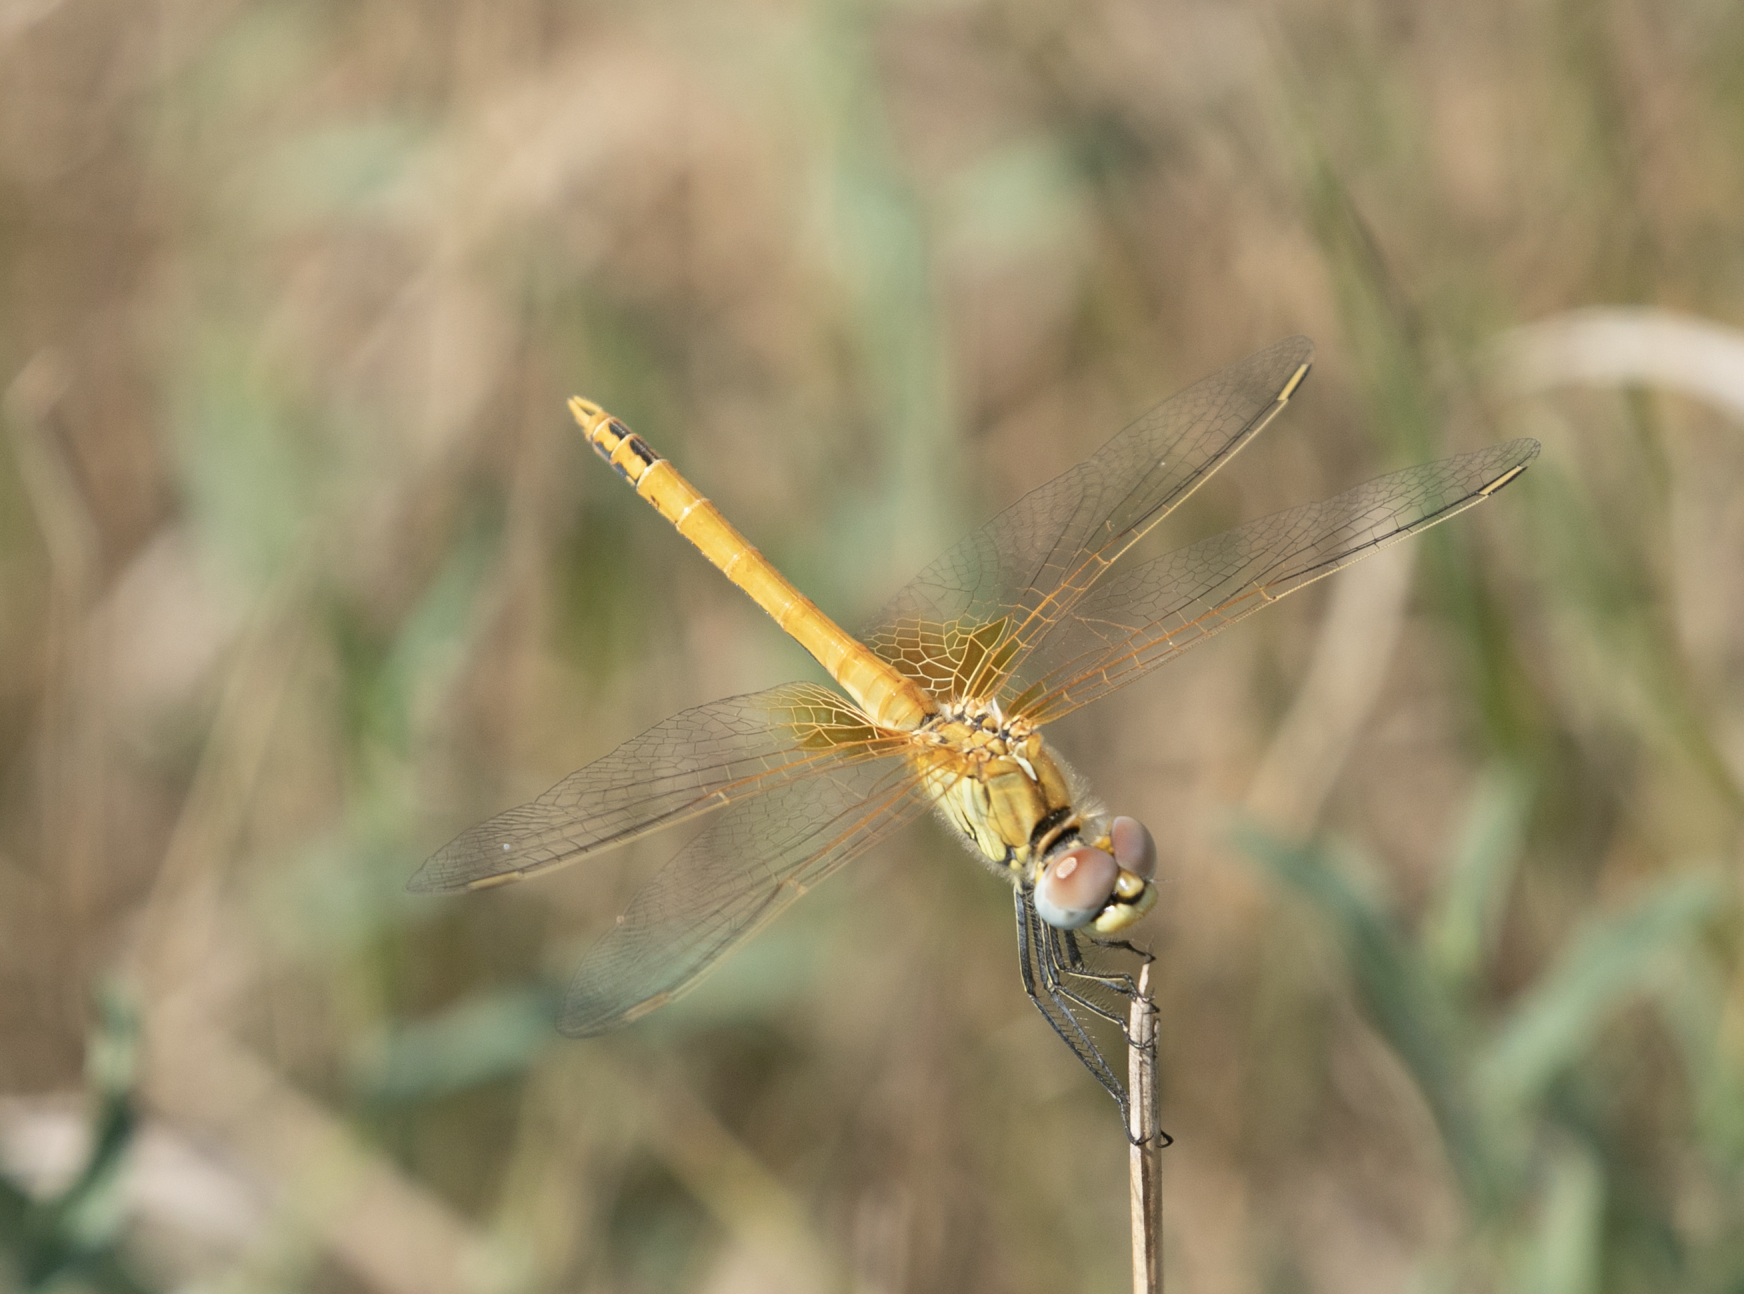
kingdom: Animalia
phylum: Arthropoda
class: Insecta
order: Odonata
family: Libellulidae
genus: Sympetrum
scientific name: Sympetrum fonscolombii
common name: Red-veined darter
